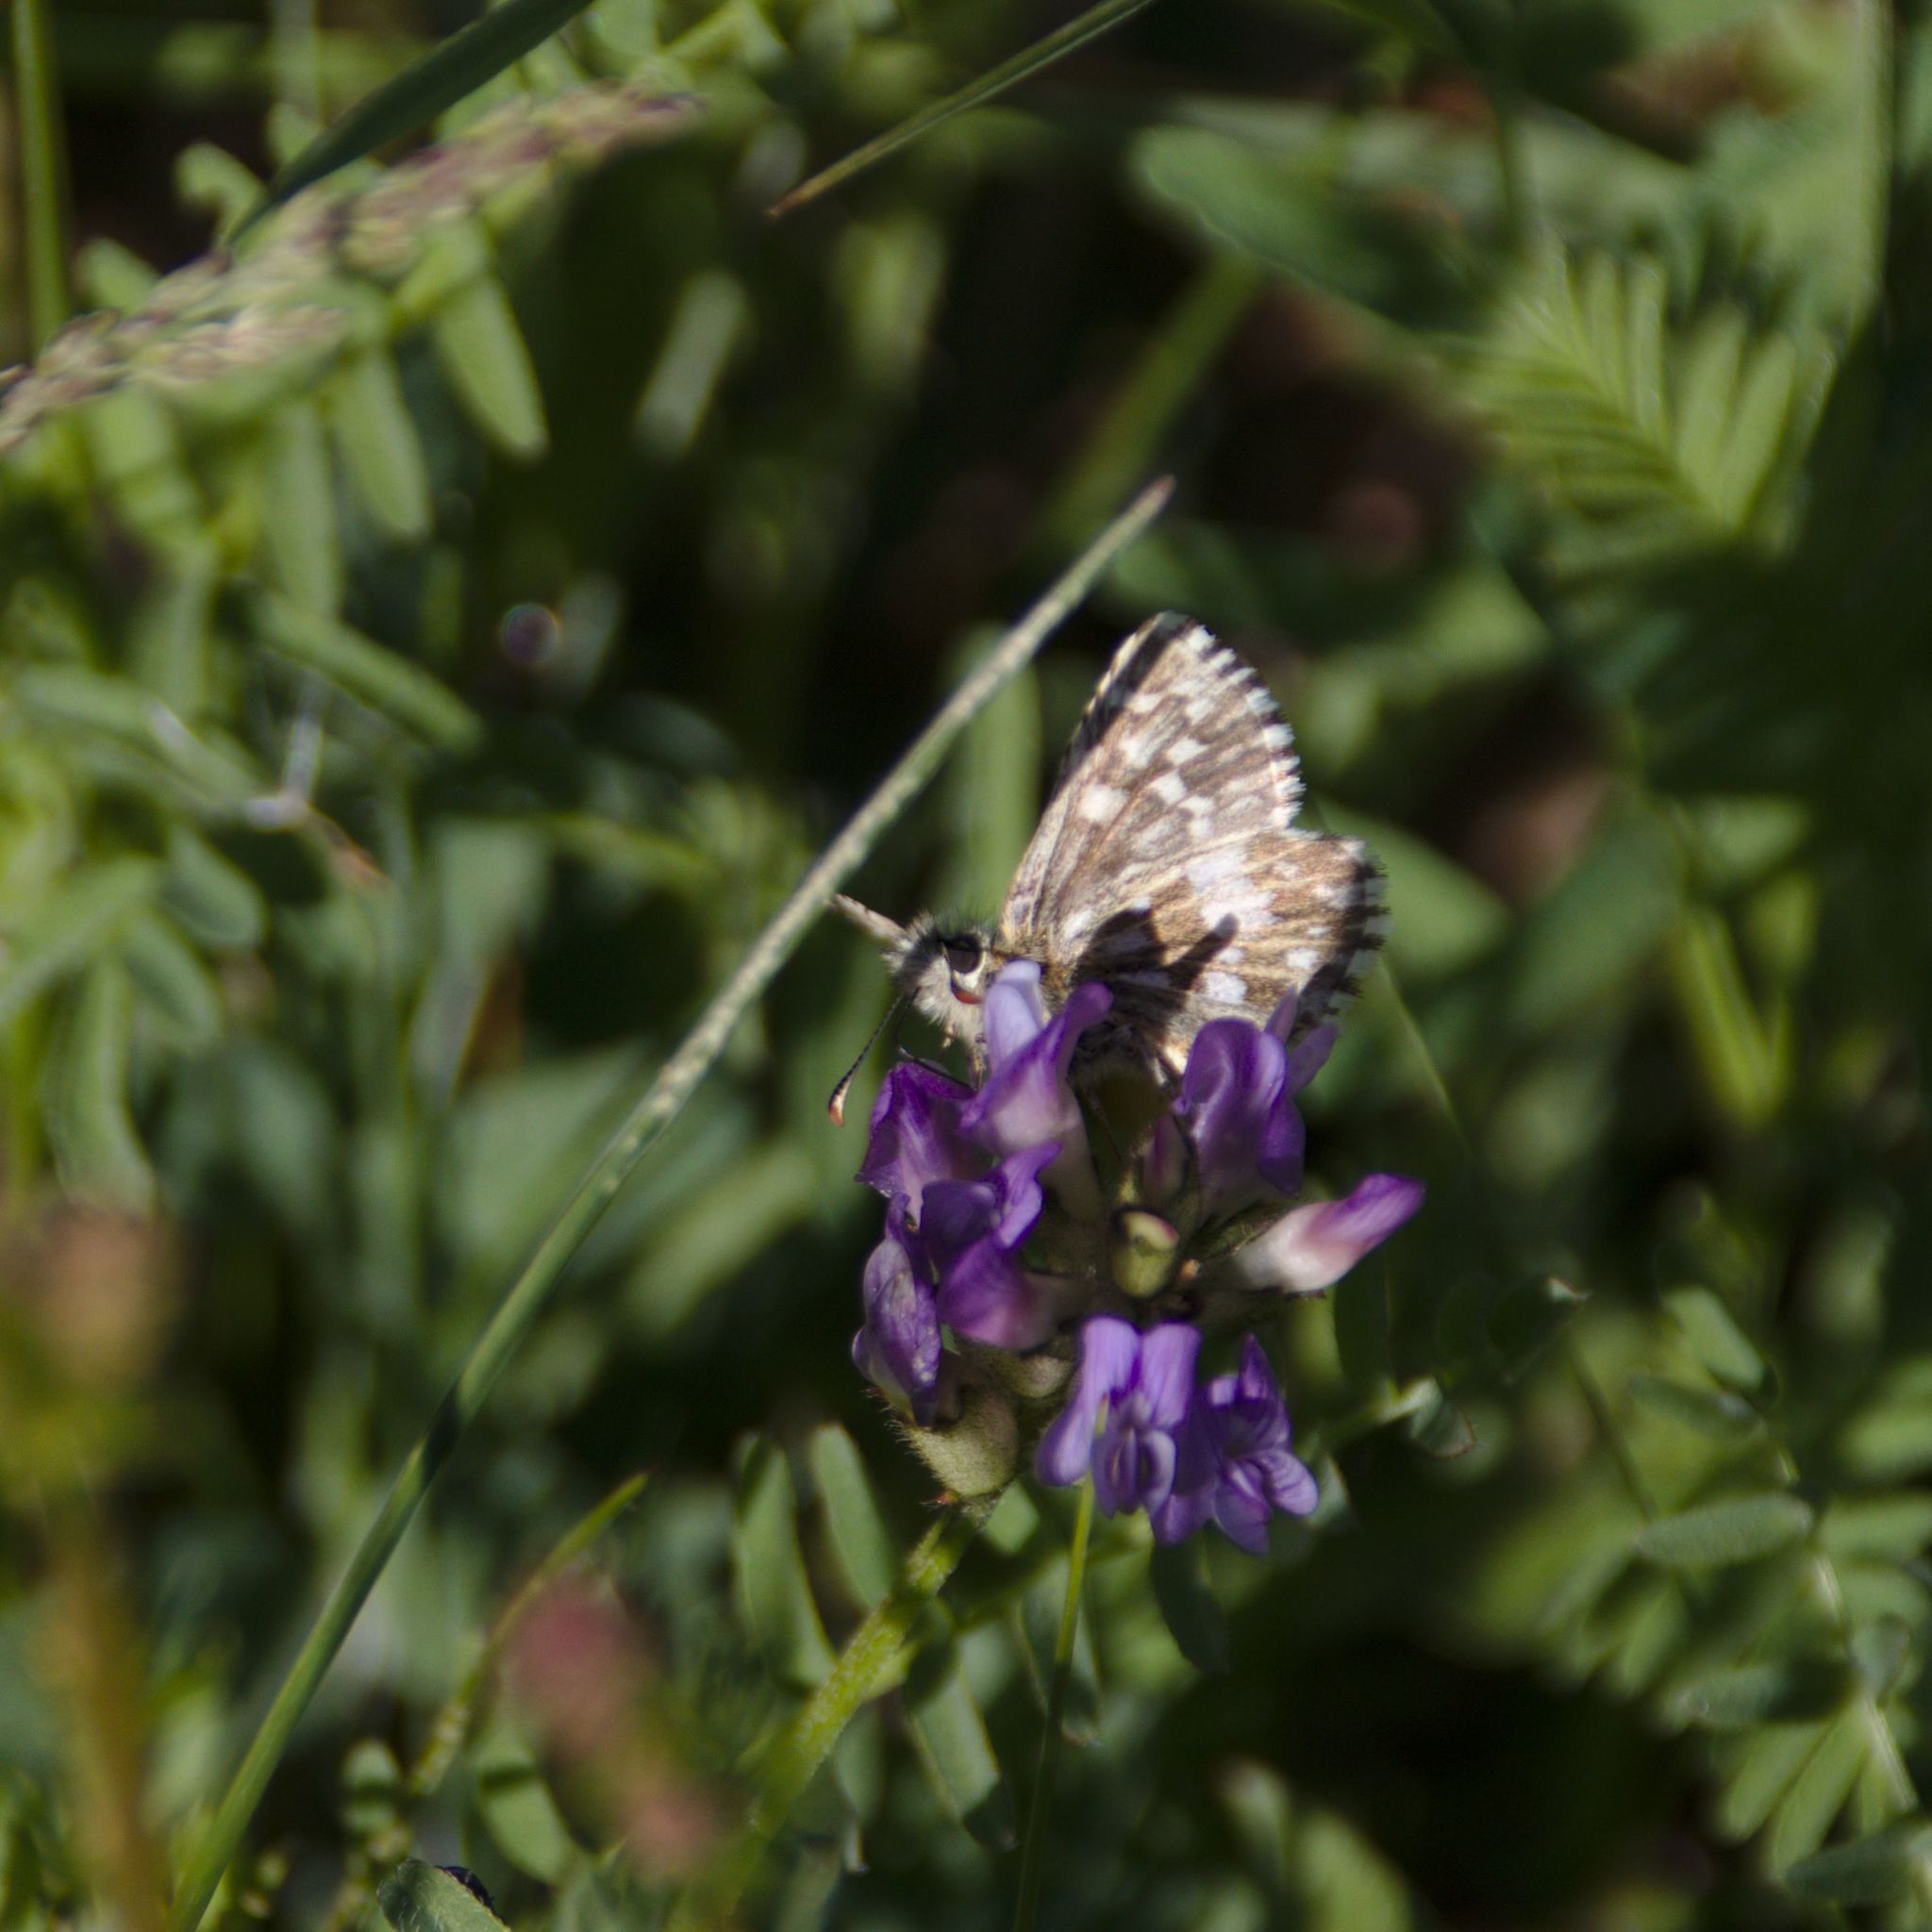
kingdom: Animalia
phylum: Arthropoda
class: Insecta
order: Lepidoptera
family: Hesperiidae
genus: Pyrgus
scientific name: Pyrgus malvae
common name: Grizzled skipper
